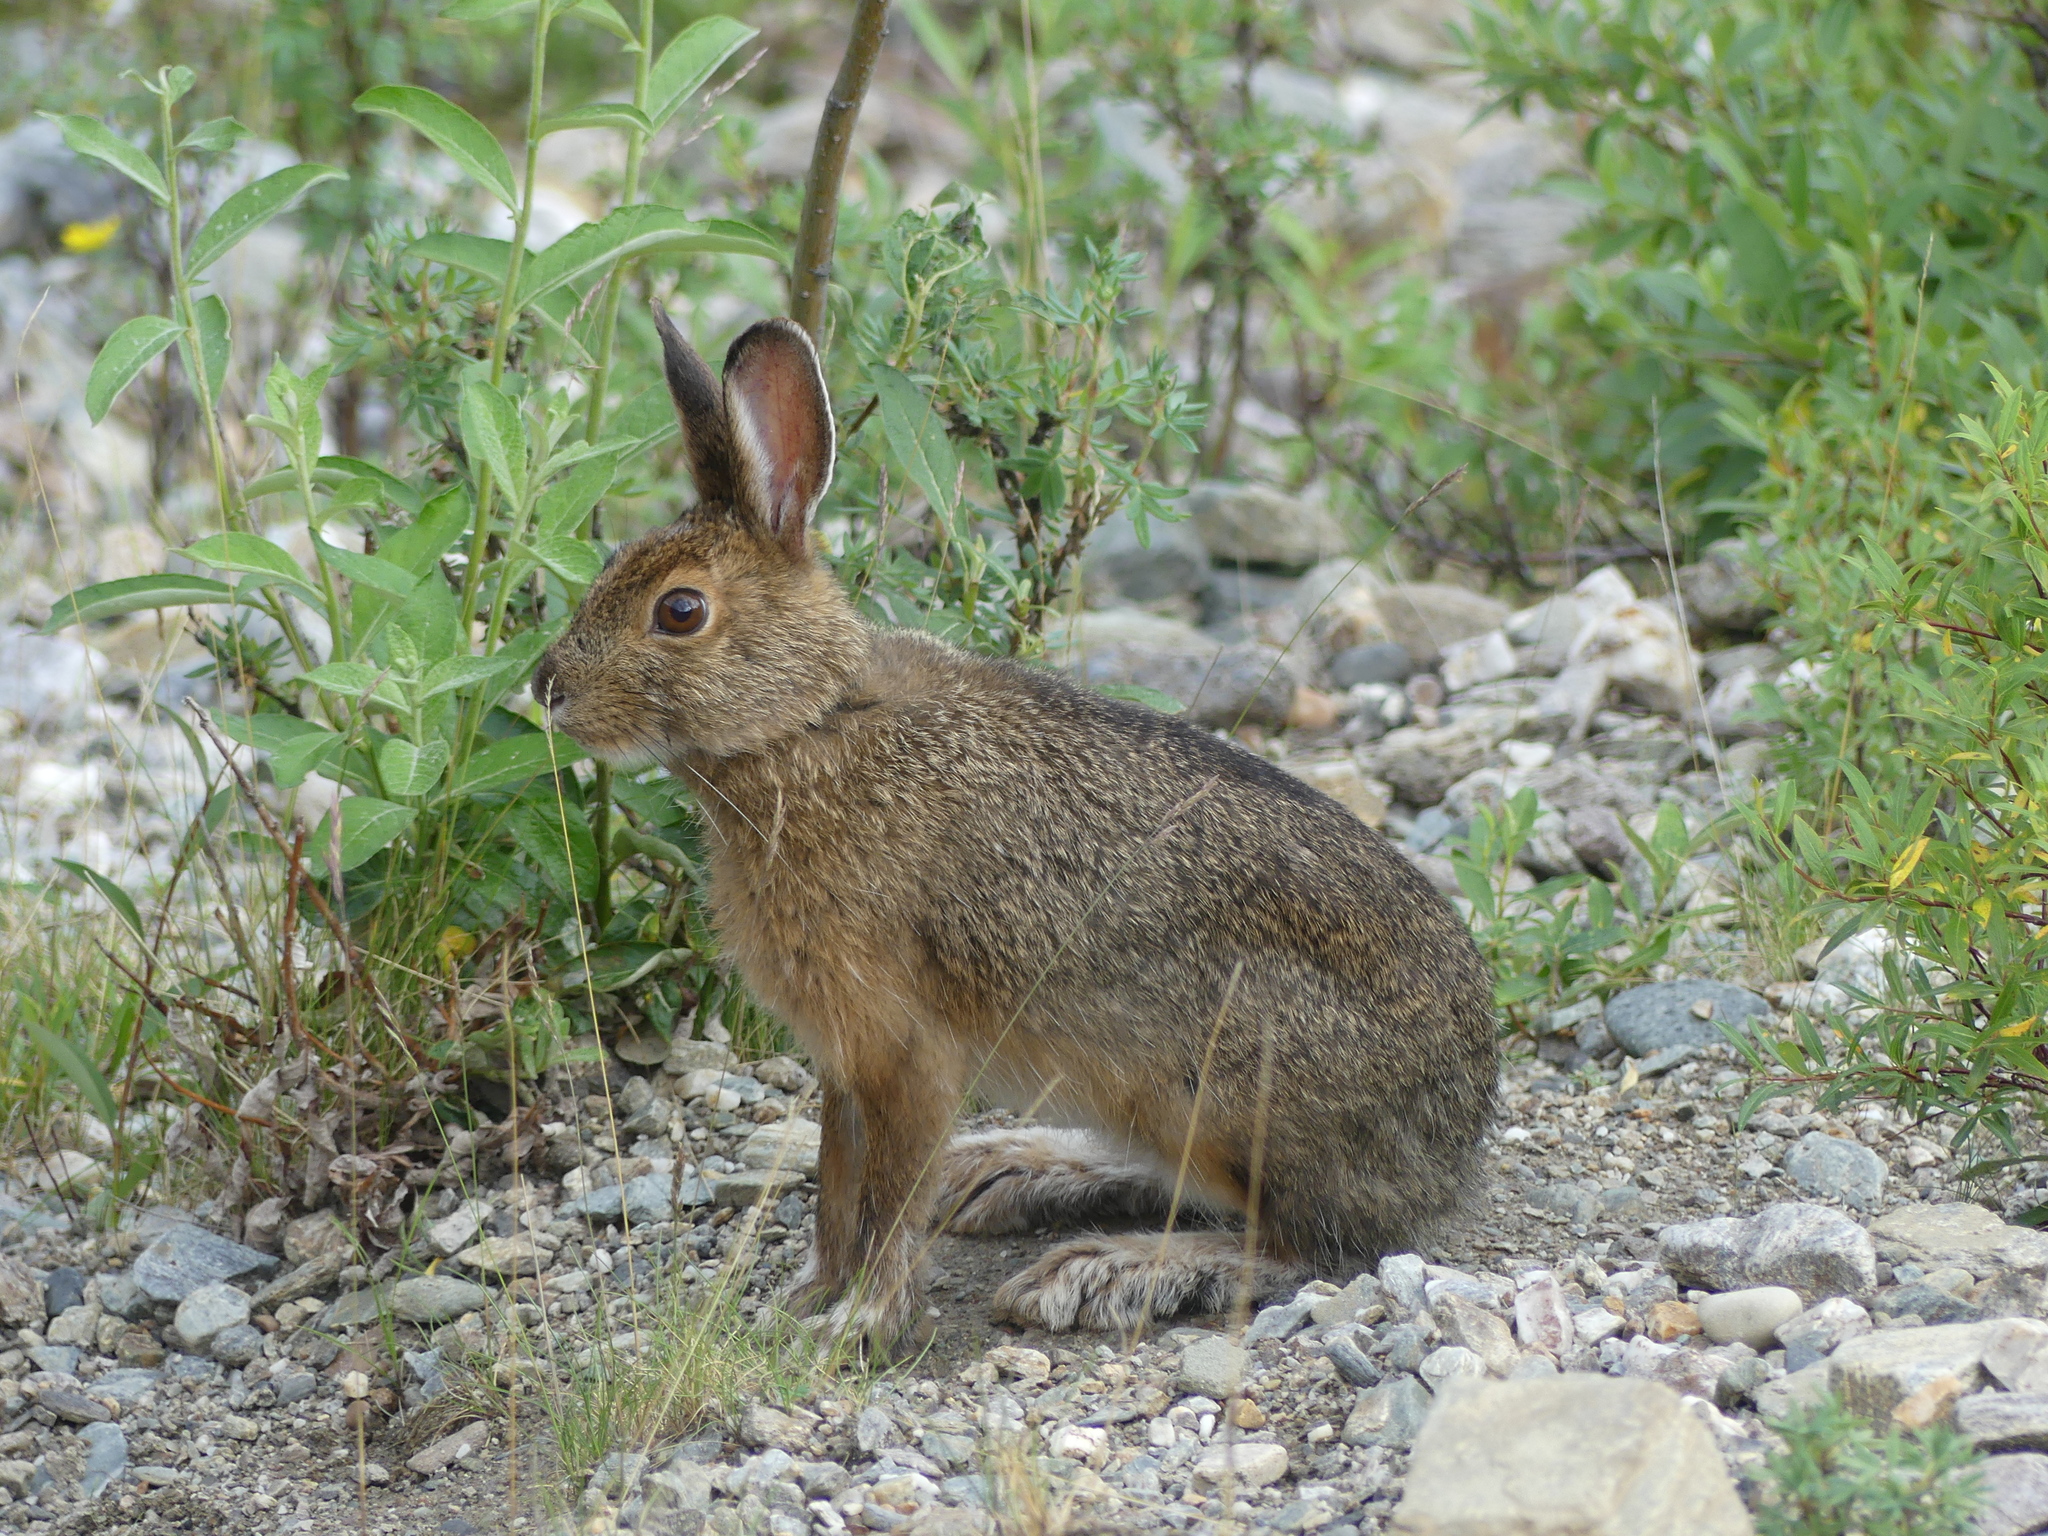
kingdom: Animalia
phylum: Chordata
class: Mammalia
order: Lagomorpha
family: Leporidae
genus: Lepus
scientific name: Lepus americanus
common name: Snowshoe hare
